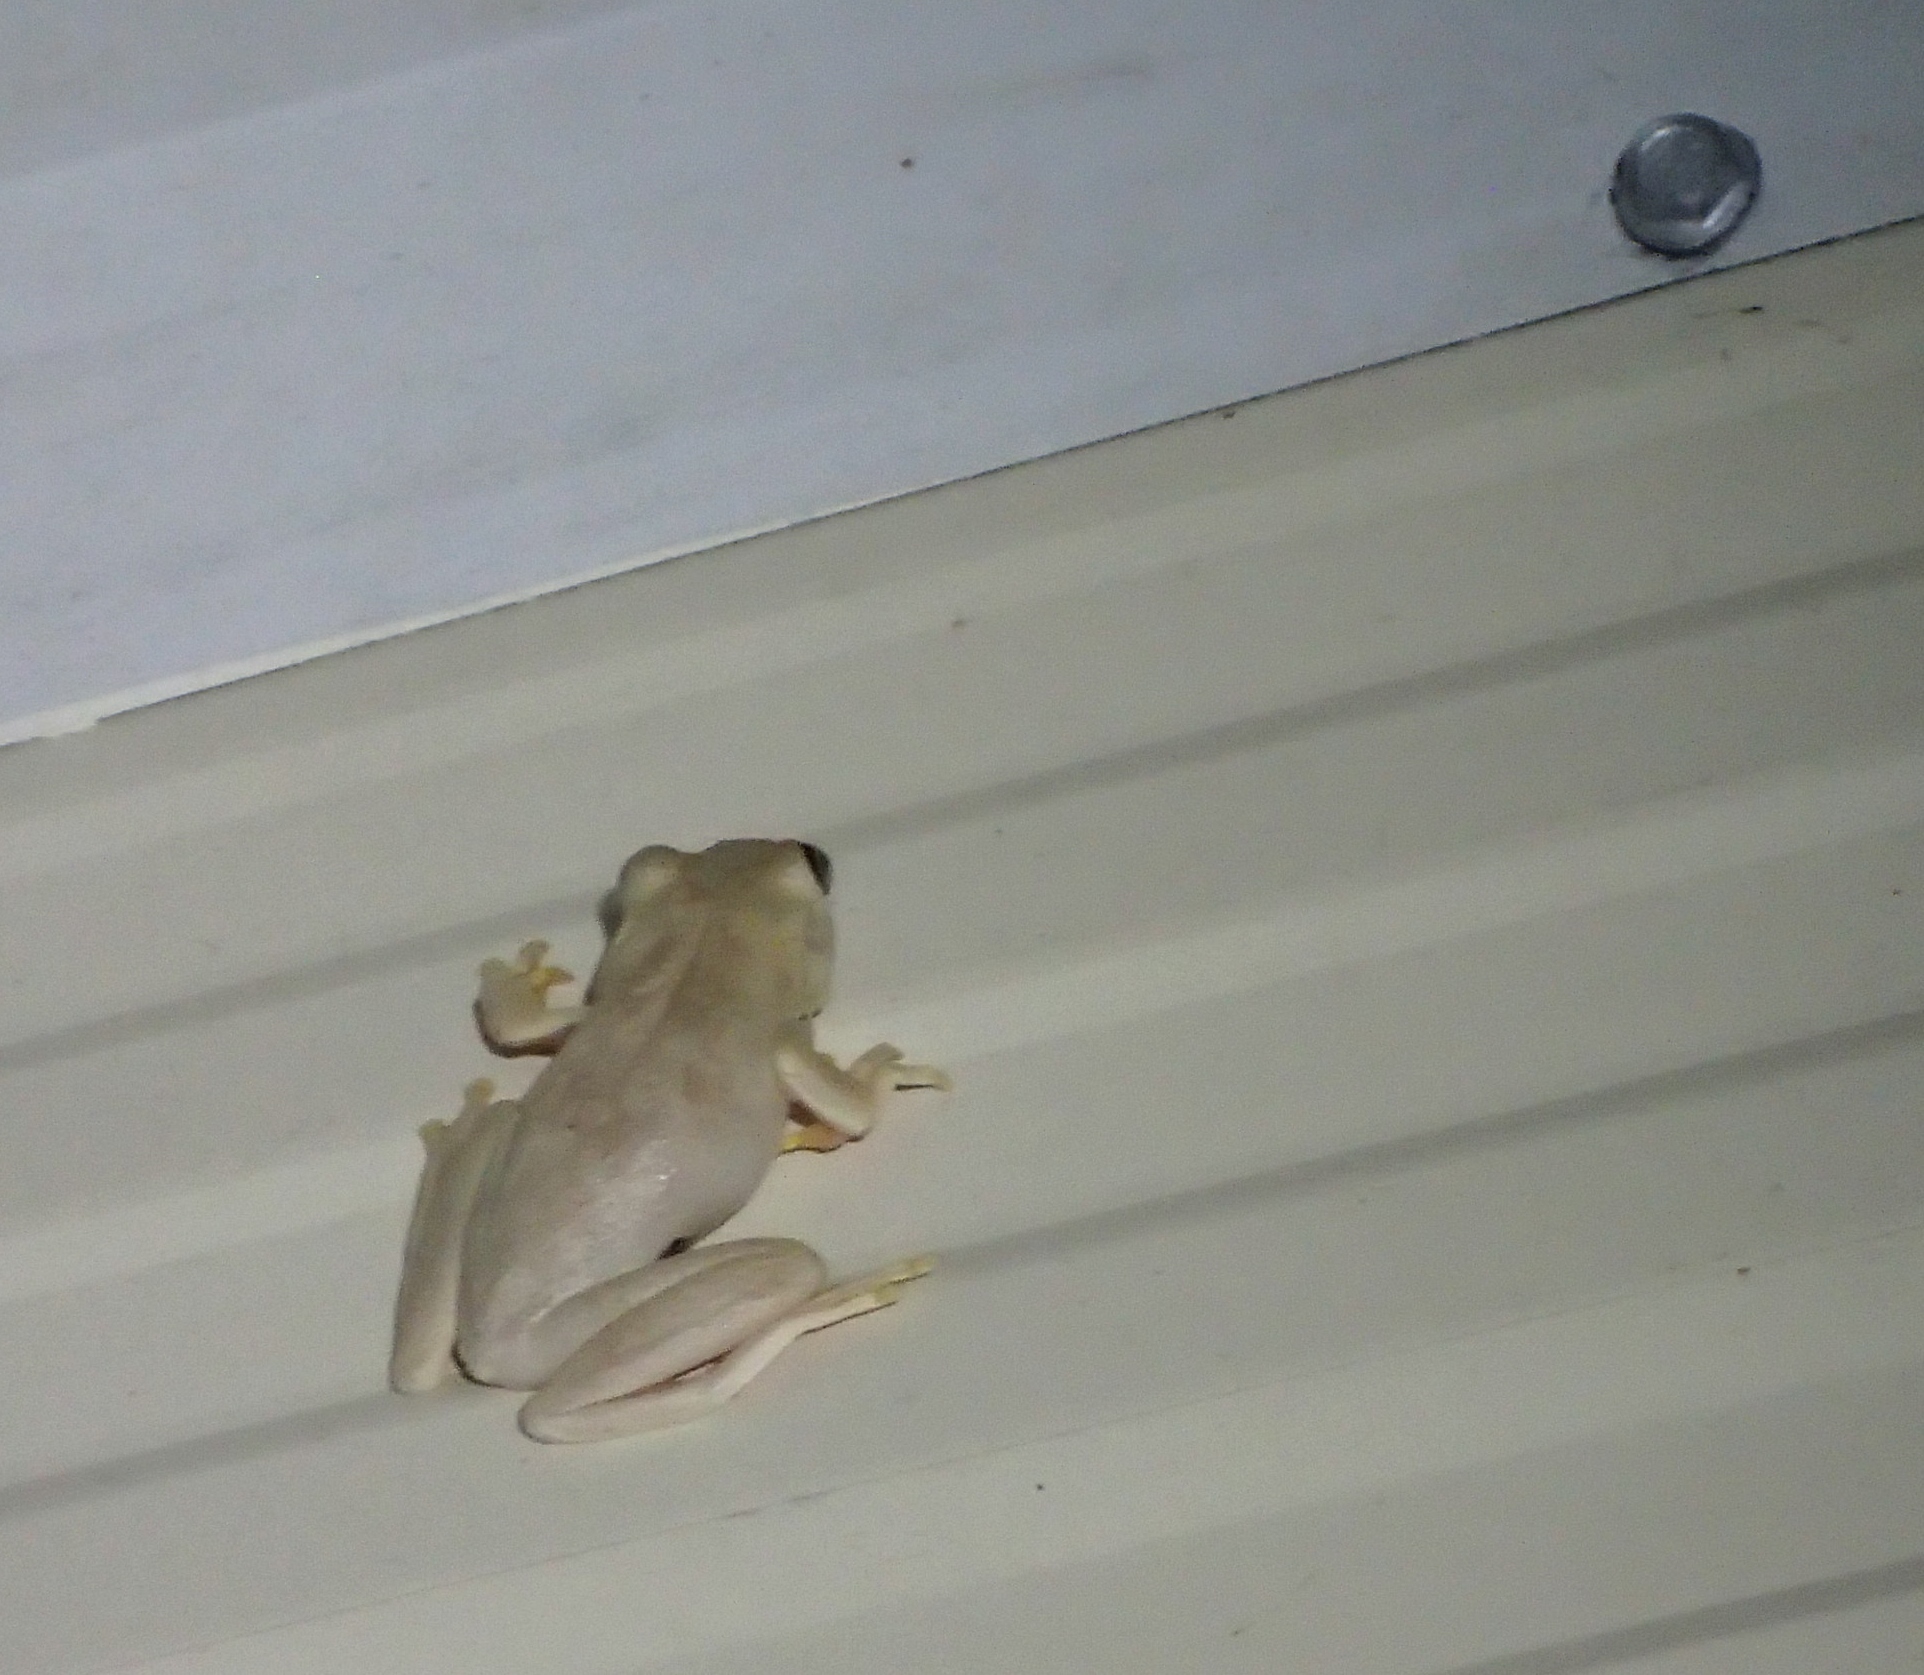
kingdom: Animalia
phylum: Chordata
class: Amphibia
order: Anura
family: Pelodryadidae
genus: Litoria
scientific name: Litoria
